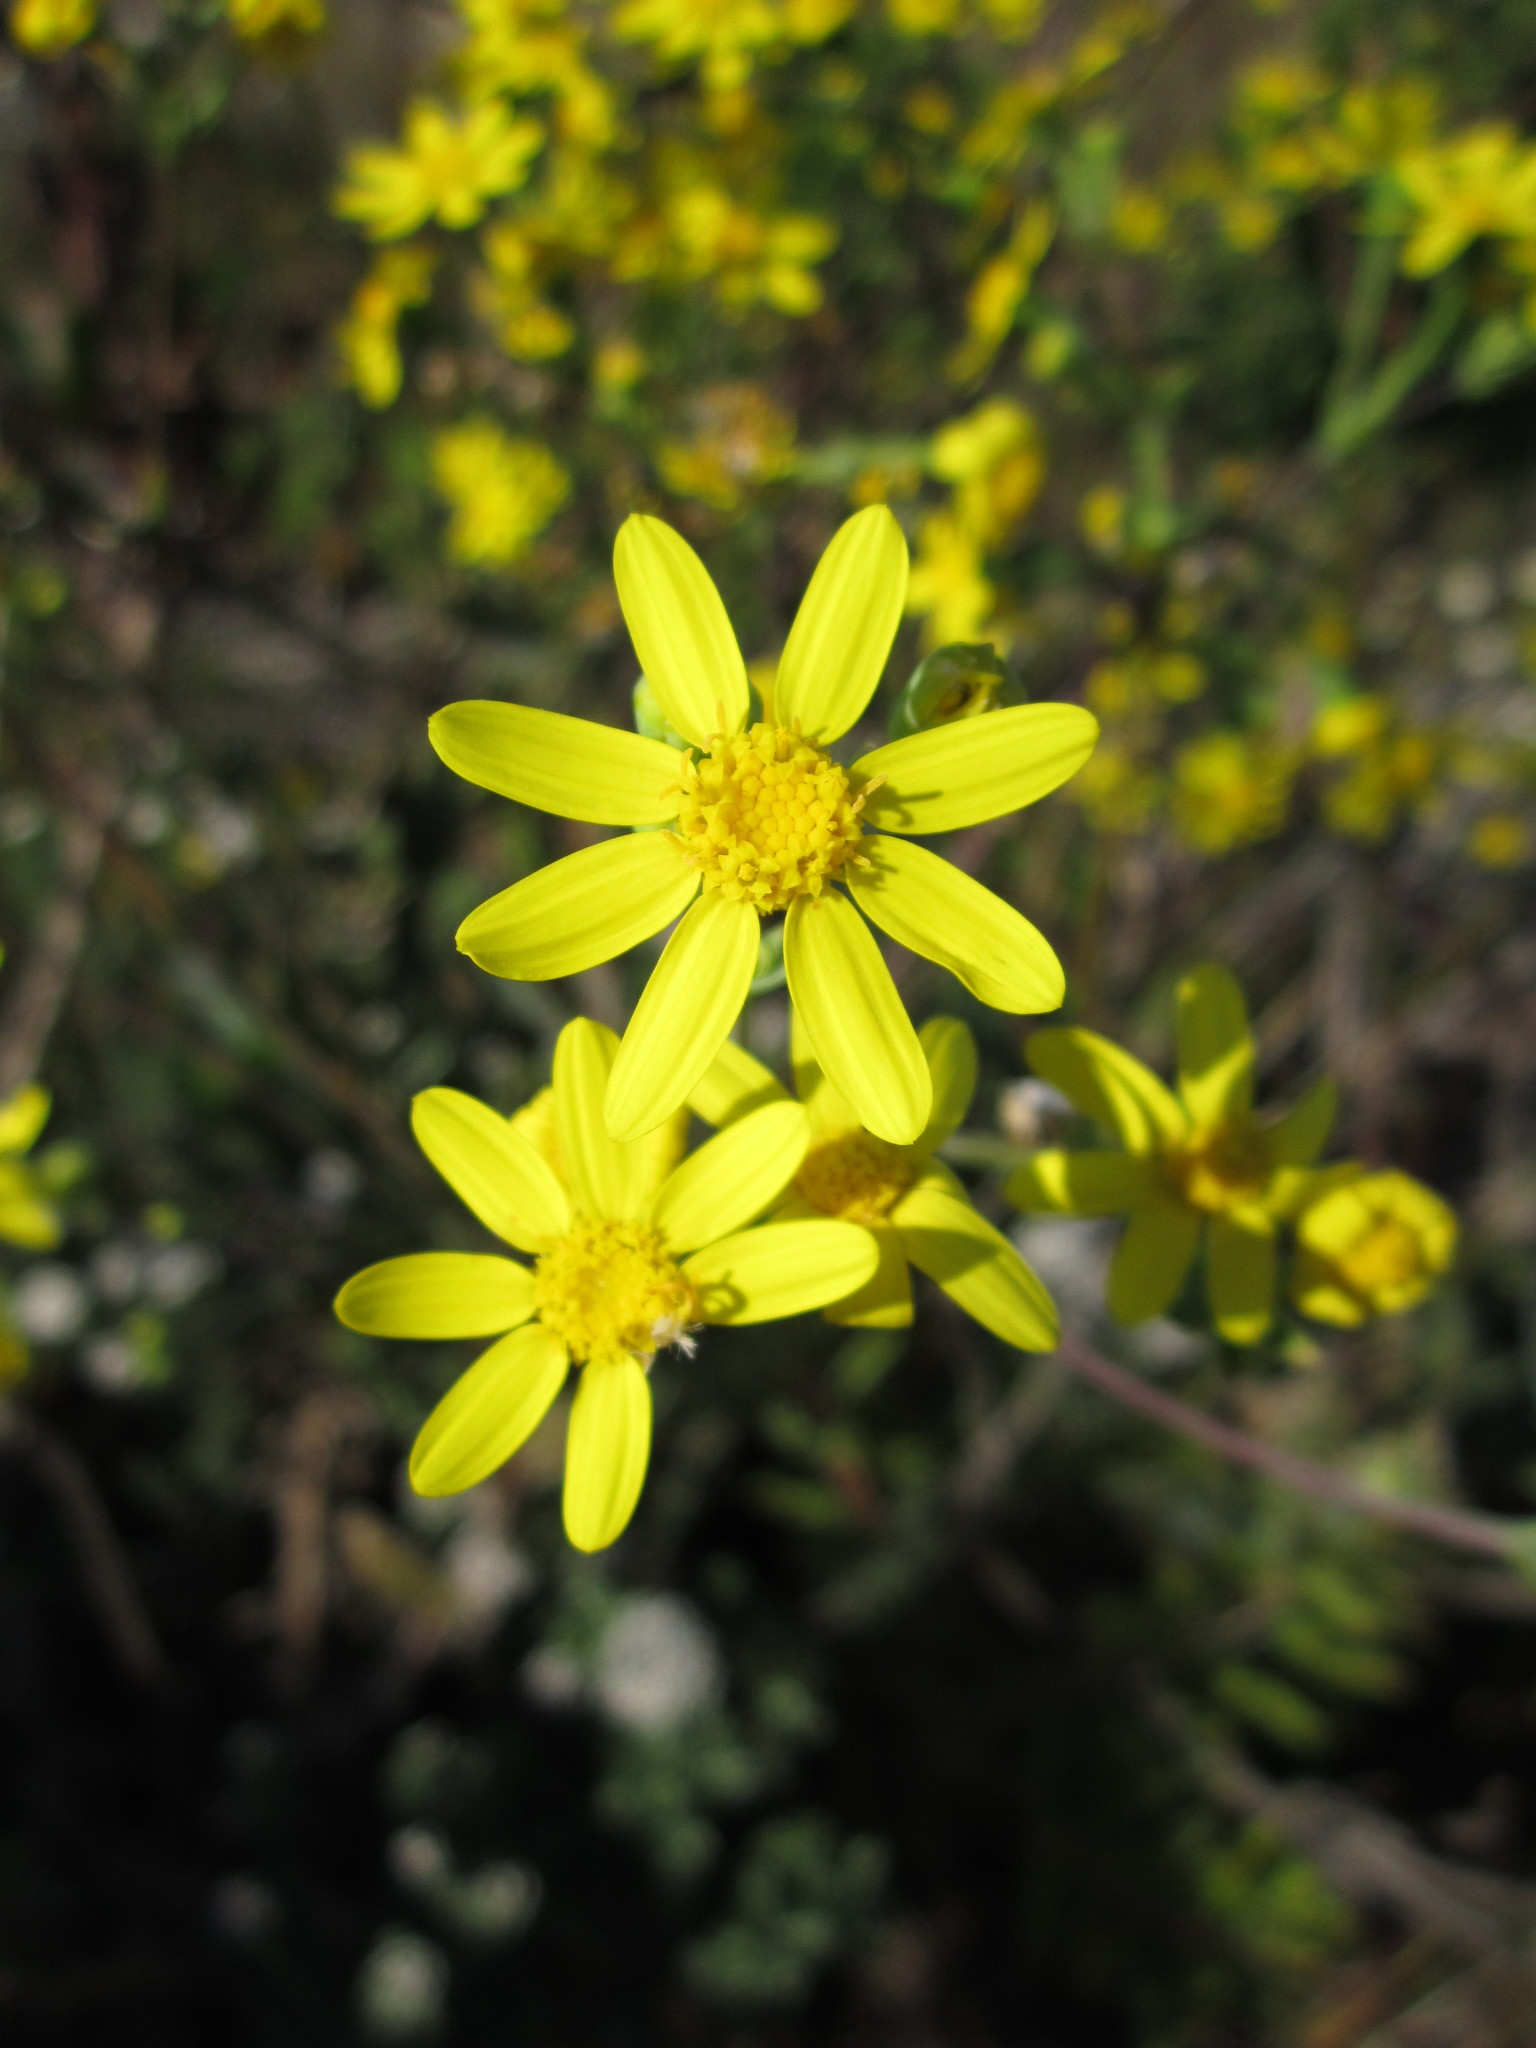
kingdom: Plantae
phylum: Tracheophyta
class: Magnoliopsida
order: Asterales
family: Asteraceae
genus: Othonna
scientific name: Othonna quinquedentata
